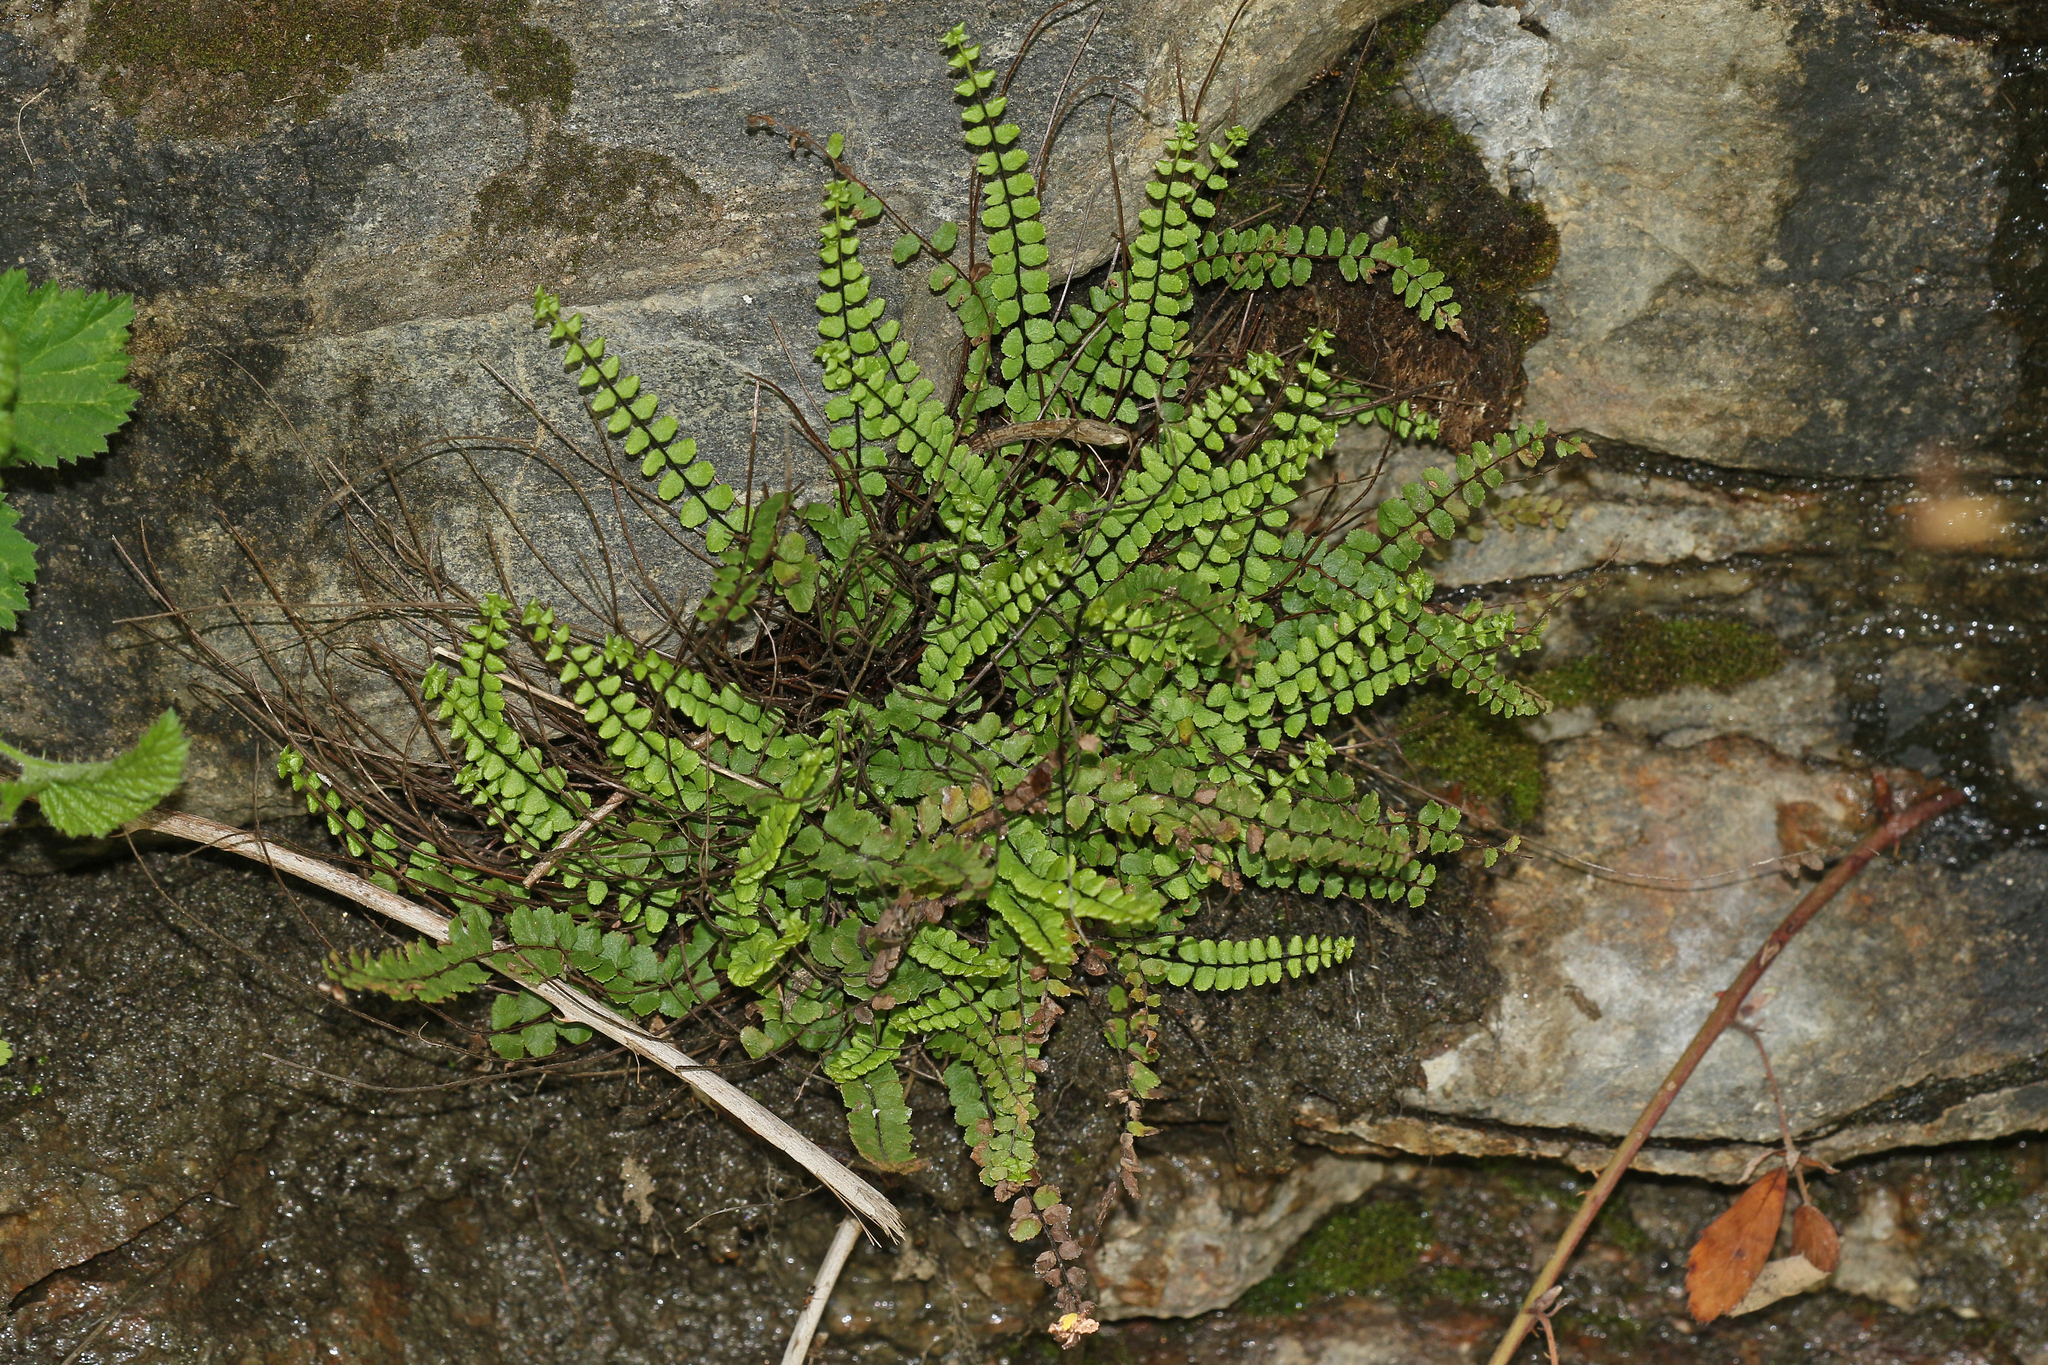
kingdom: Plantae
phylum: Tracheophyta
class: Polypodiopsida
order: Polypodiales
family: Aspleniaceae
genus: Asplenium
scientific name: Asplenium trichomanes
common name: Maidenhair spleenwort
